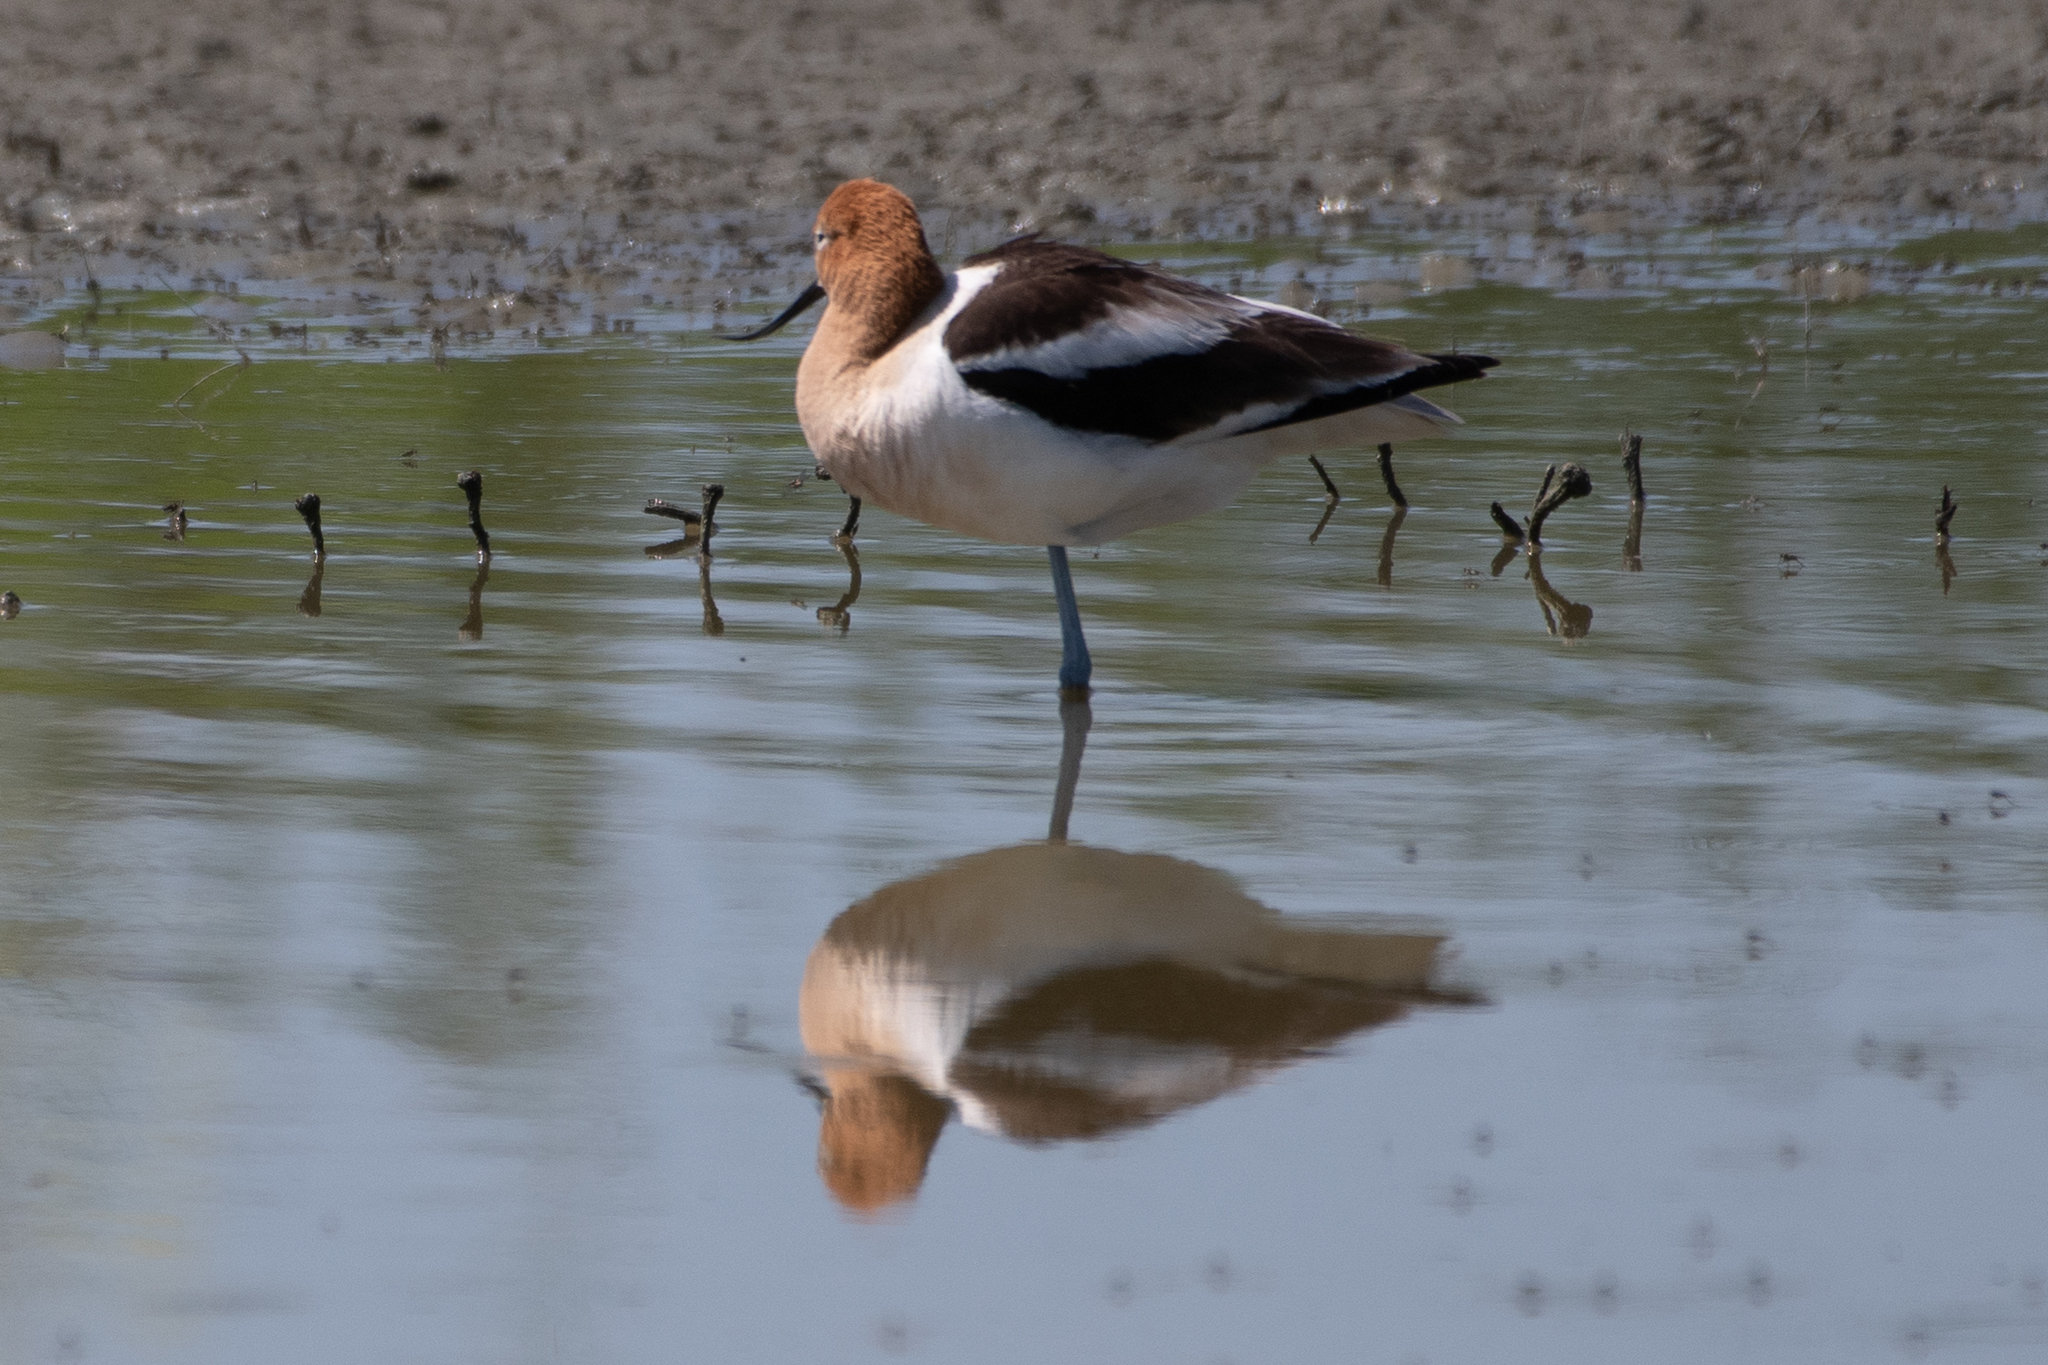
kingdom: Animalia
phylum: Chordata
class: Aves
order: Charadriiformes
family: Recurvirostridae
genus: Recurvirostra
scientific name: Recurvirostra americana
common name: American avocet
